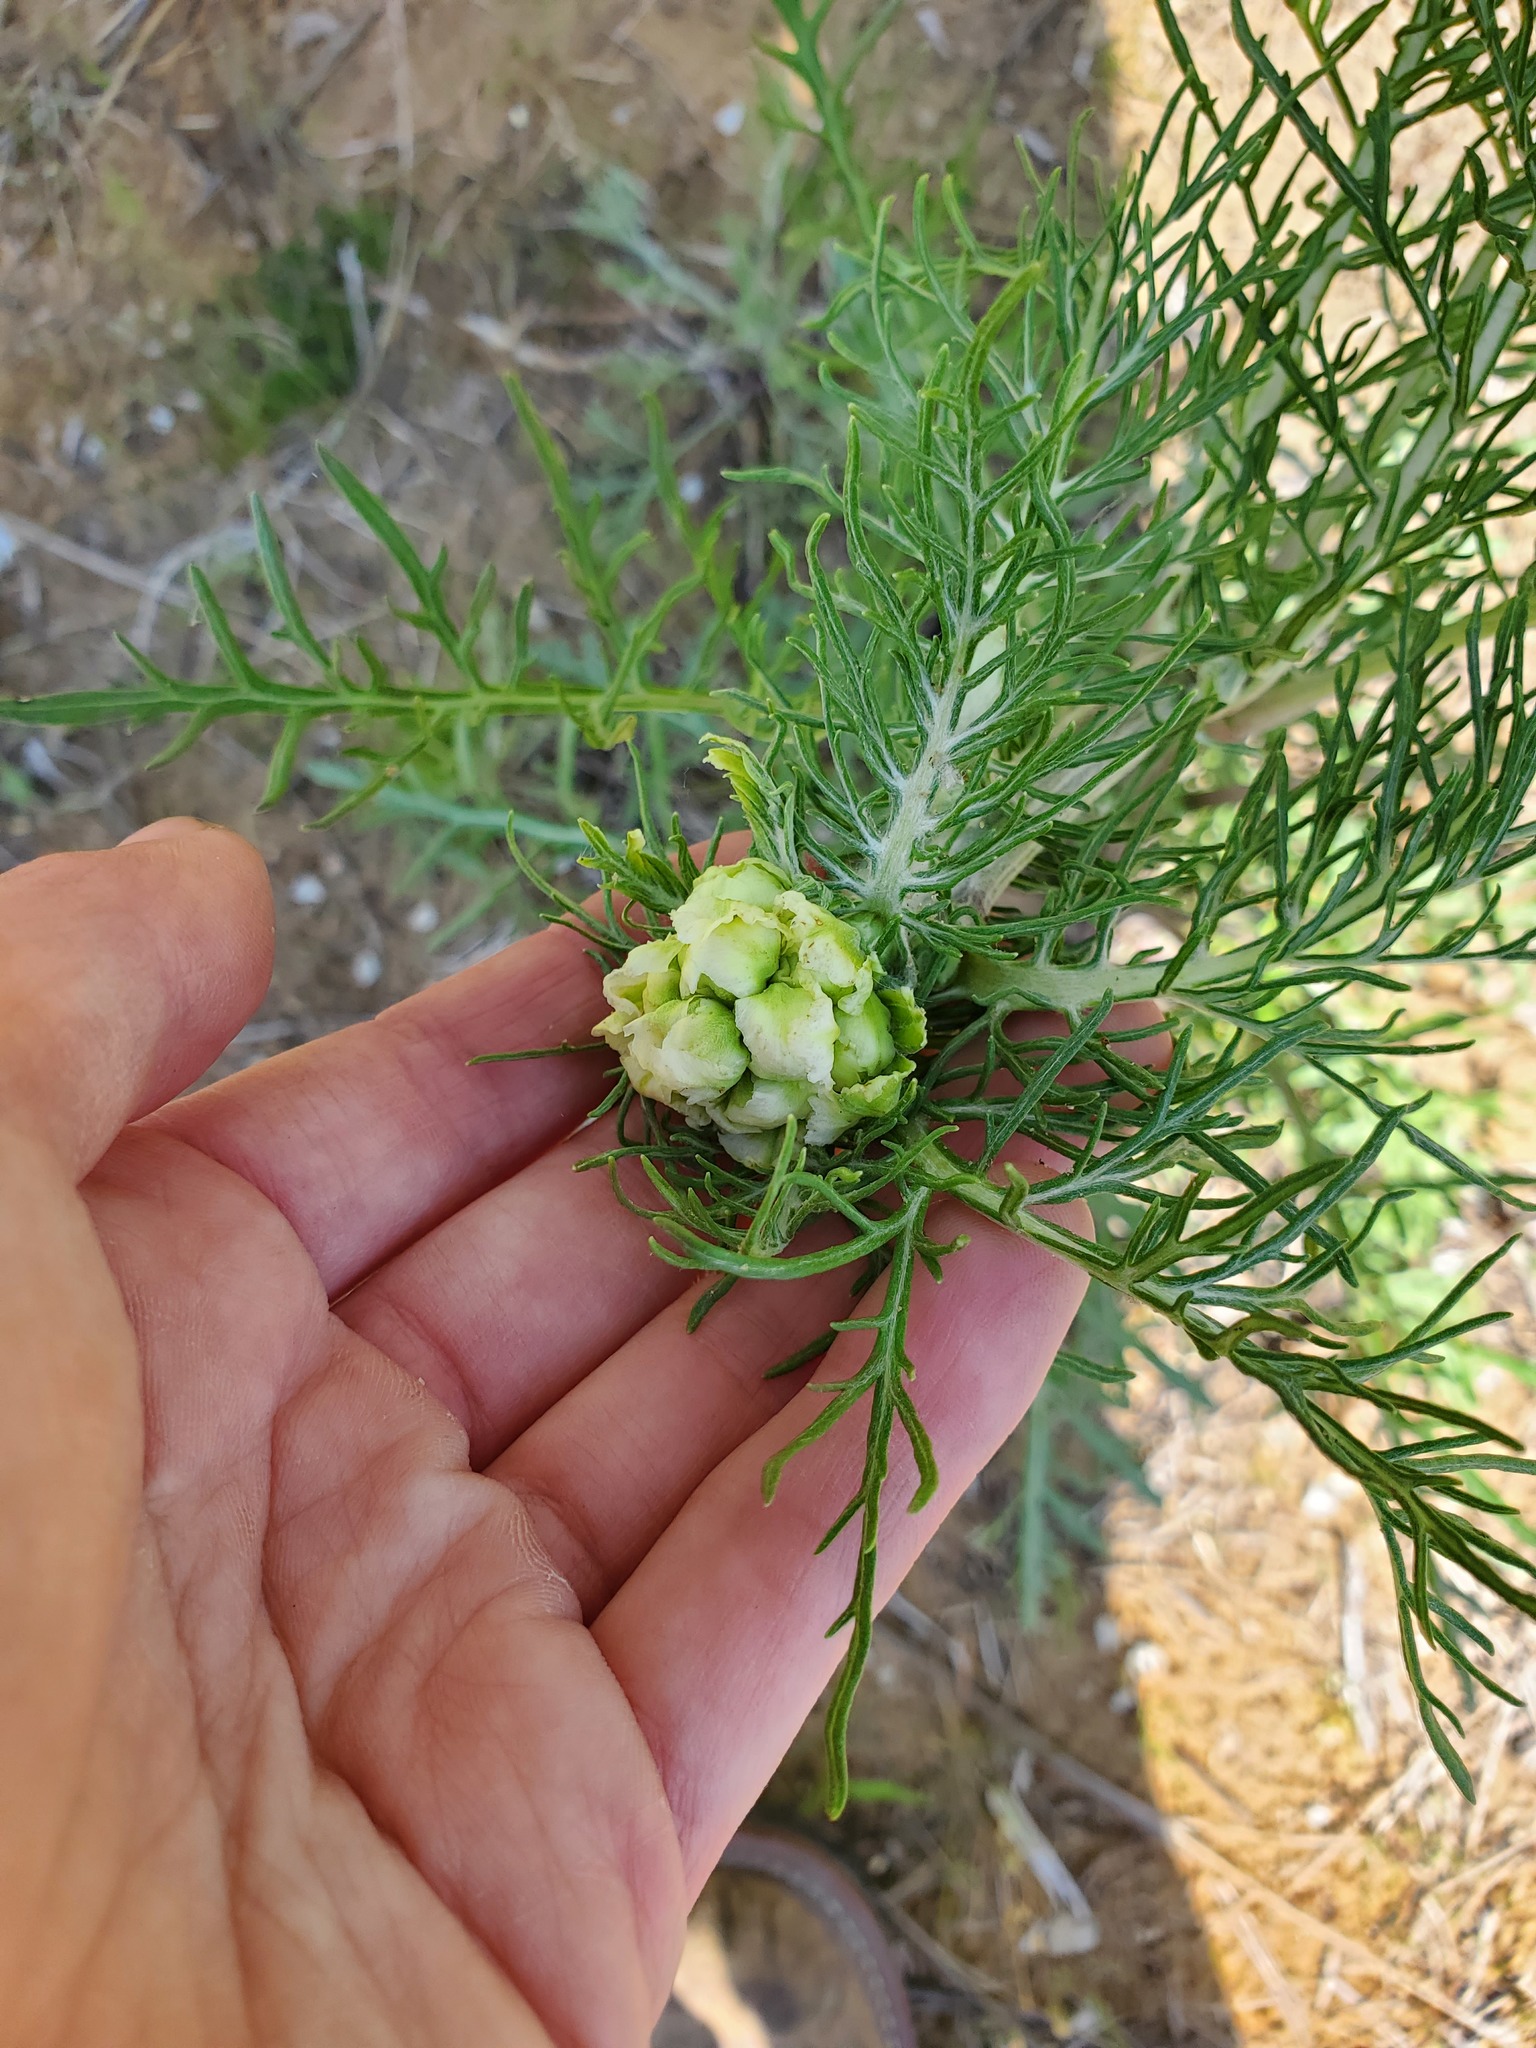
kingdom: Plantae
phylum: Tracheophyta
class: Magnoliopsida
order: Asterales
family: Asteraceae
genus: Hymenopappus
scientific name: Hymenopappus scabiosaeus
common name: Carolina woollywhite
